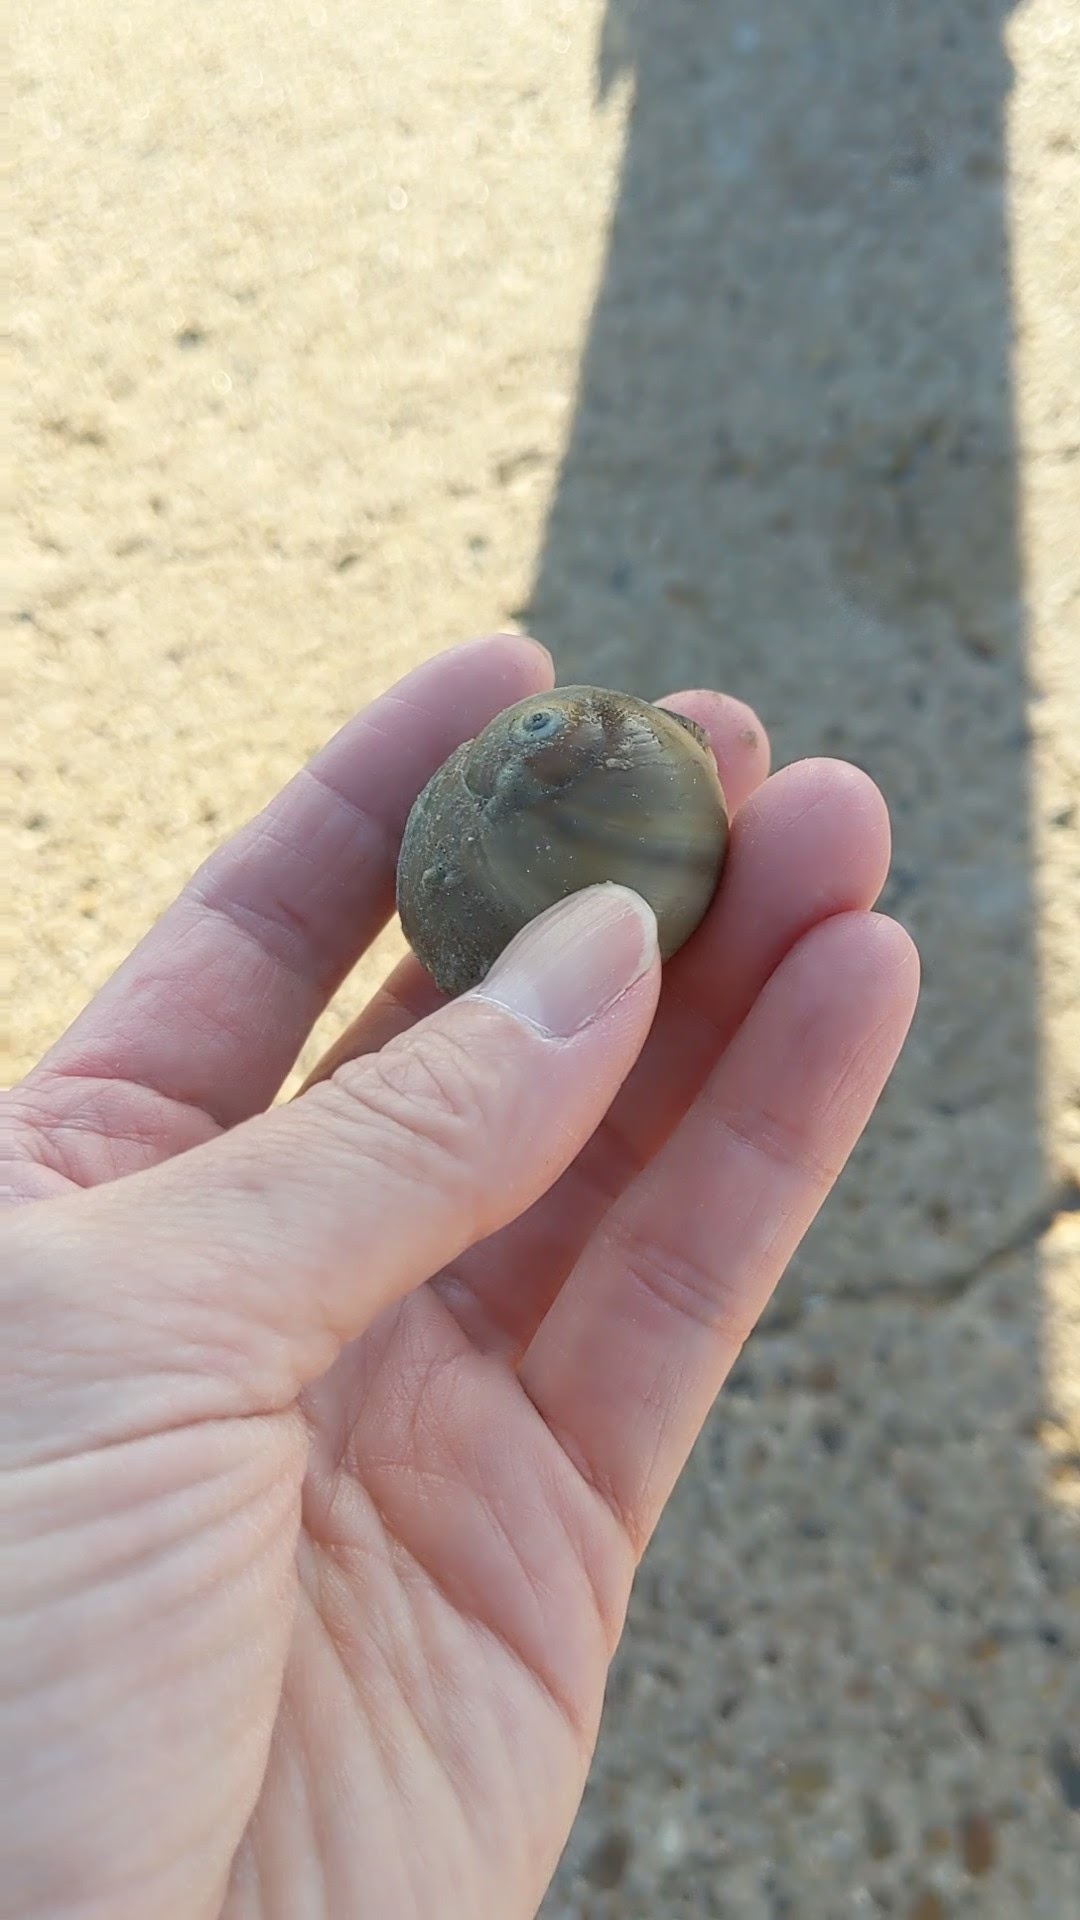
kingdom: Animalia
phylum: Arthropoda
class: Malacostraca
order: Decapoda
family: Diogenidae
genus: Clibanarius
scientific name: Clibanarius vittatus
